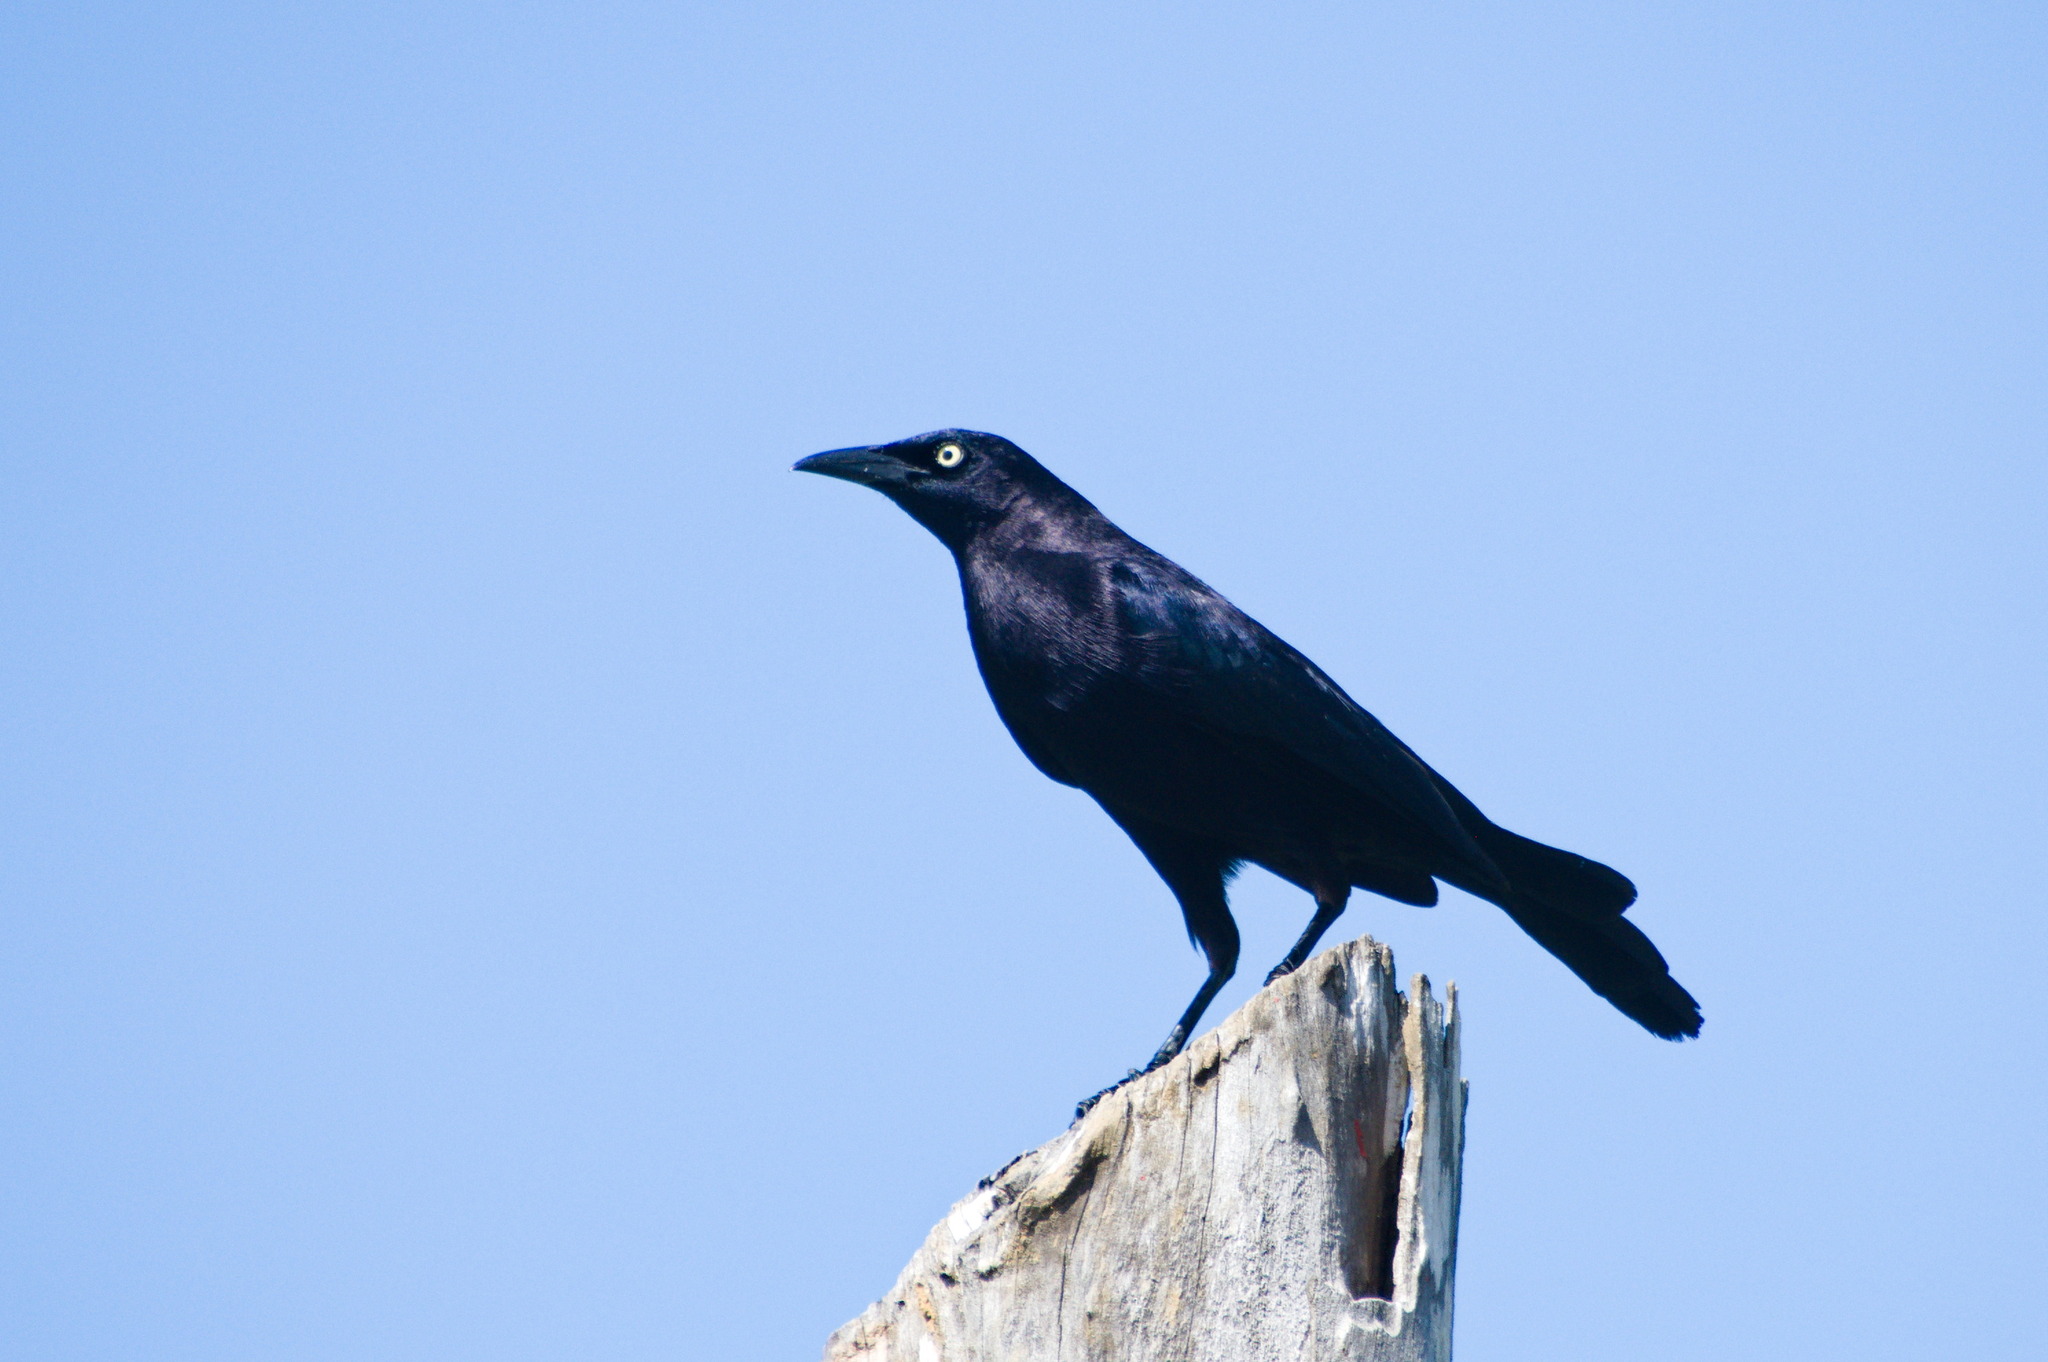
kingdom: Animalia
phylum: Chordata
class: Aves
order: Passeriformes
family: Icteridae
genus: Quiscalus
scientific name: Quiscalus lugubris
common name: Carib grackle
